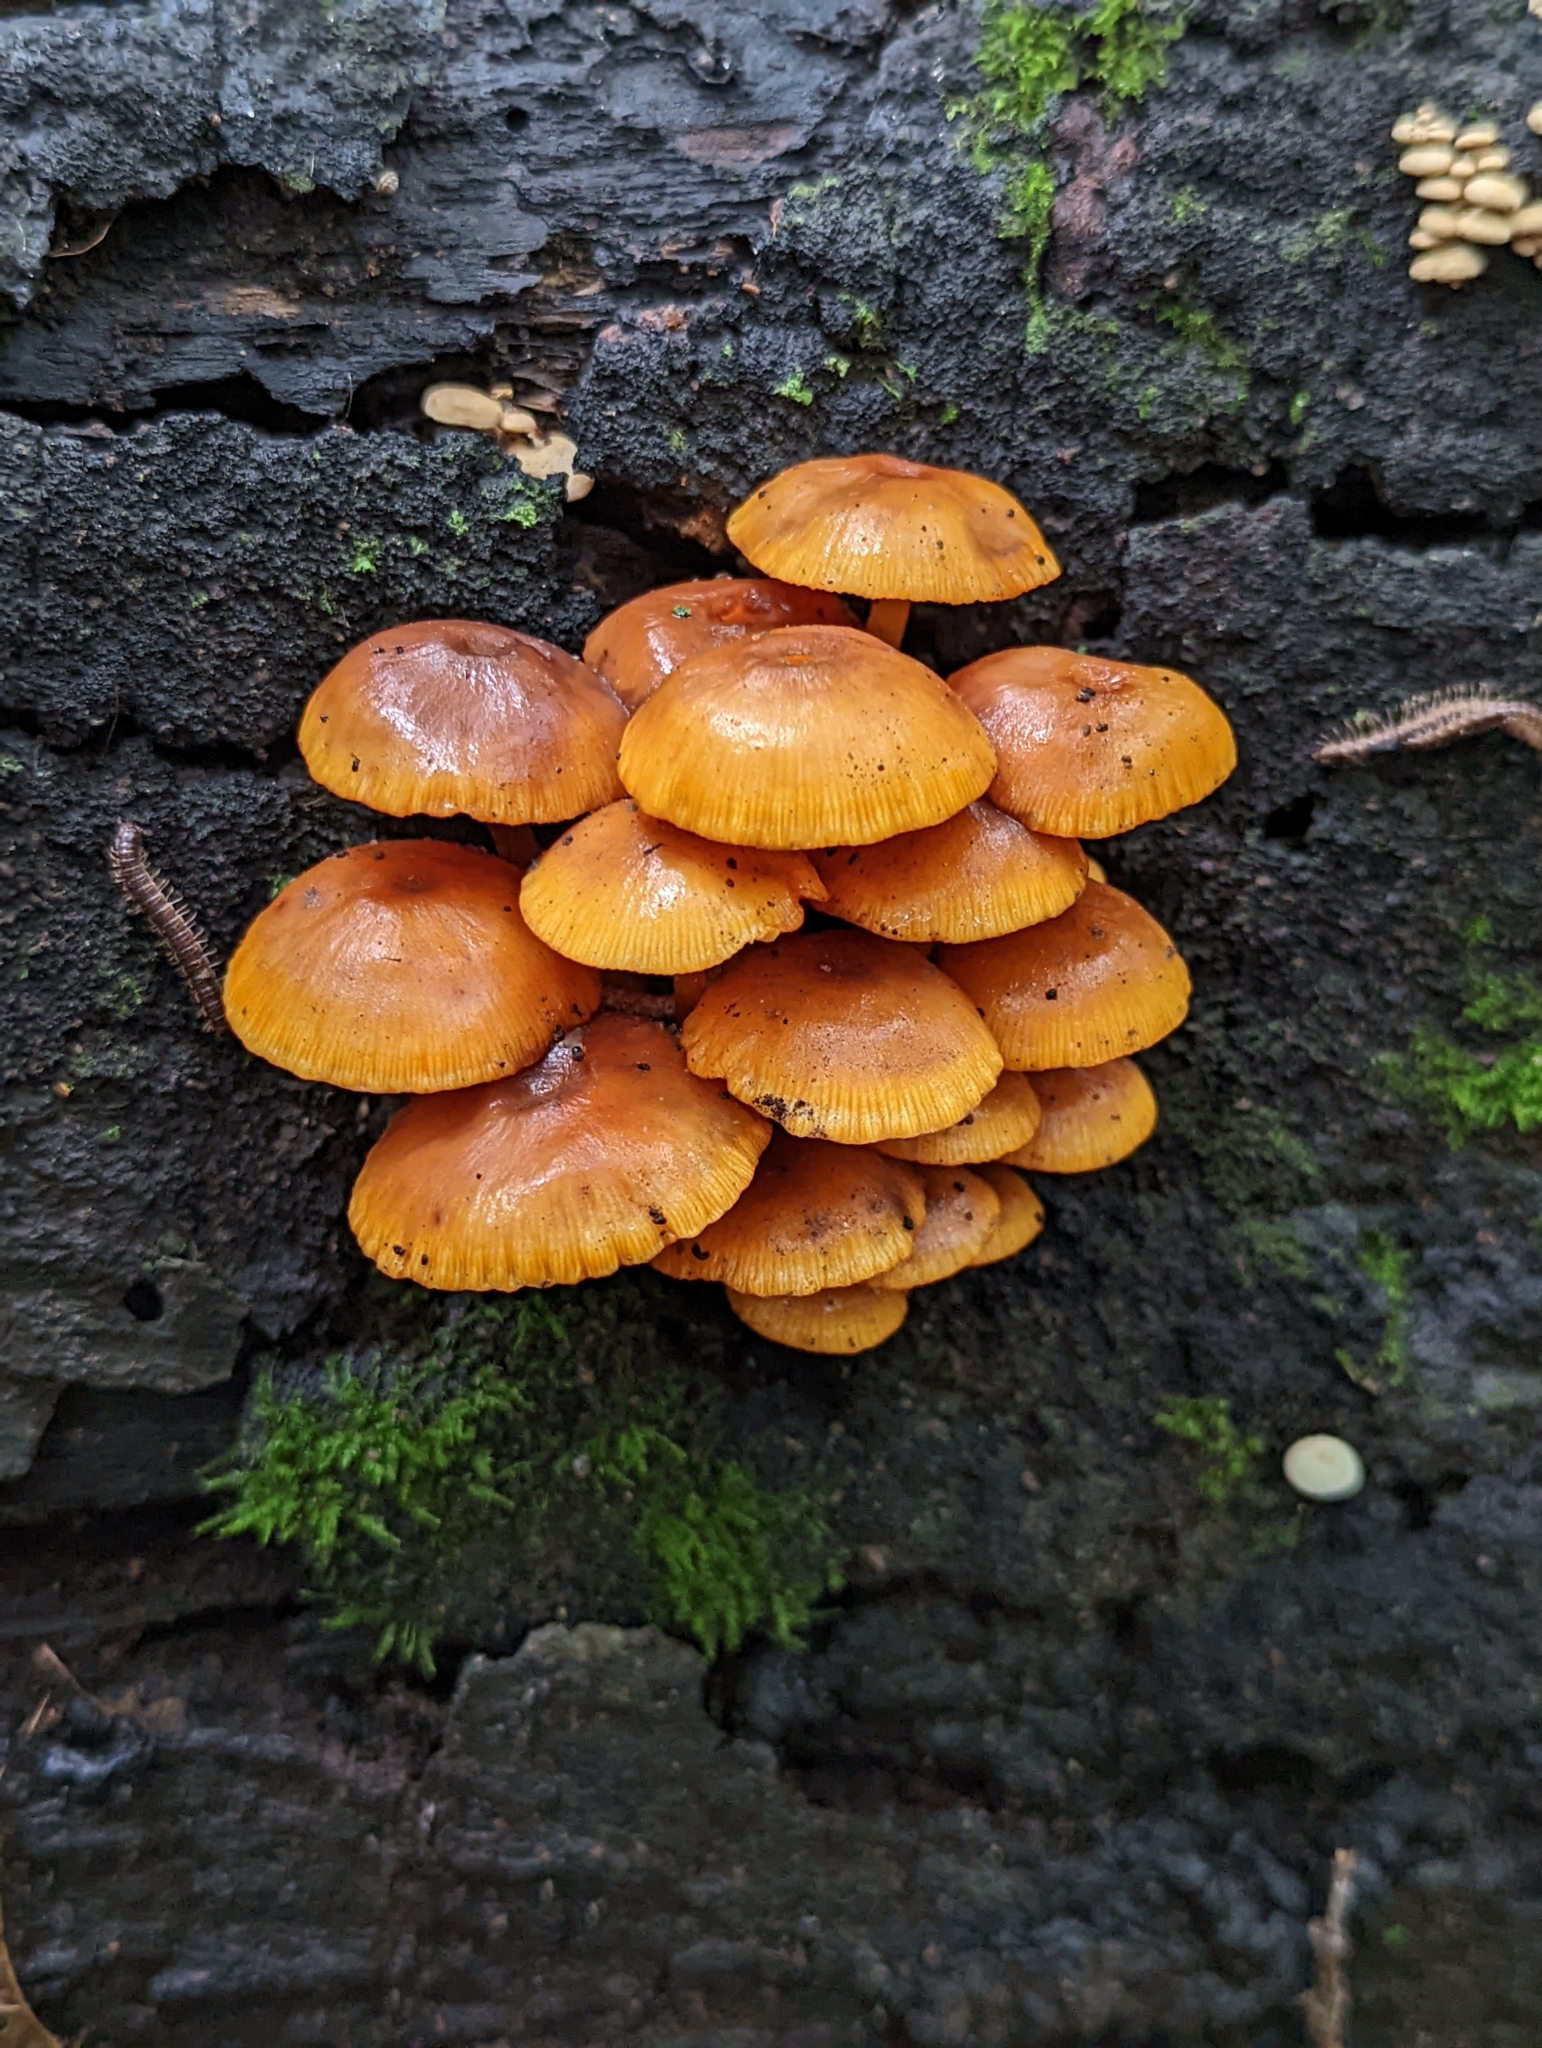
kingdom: Fungi
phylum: Basidiomycota
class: Agaricomycetes
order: Agaricales
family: Mycenaceae
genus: Mycena
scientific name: Mycena leaiana
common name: Orange mycena
